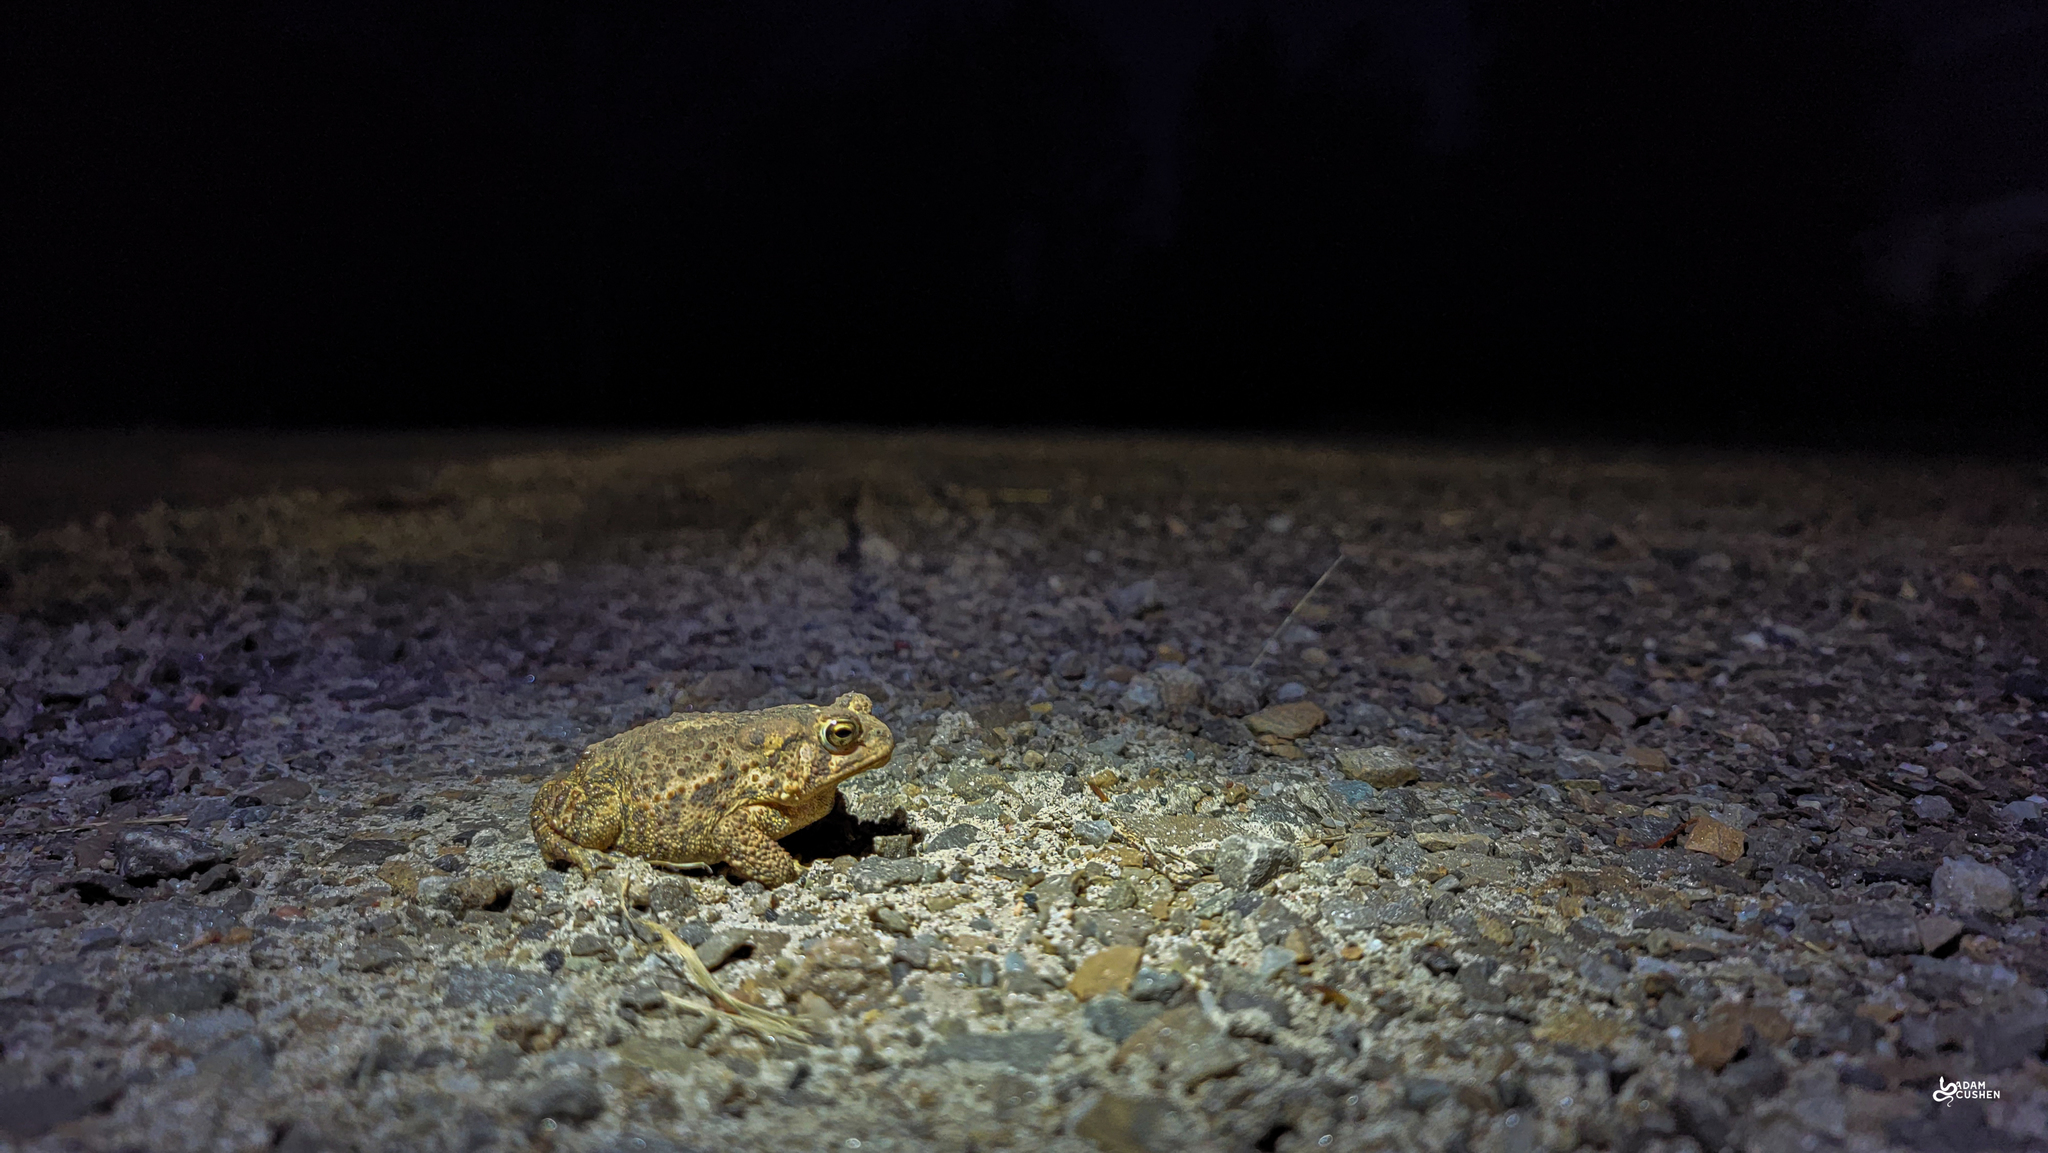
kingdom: Animalia
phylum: Chordata
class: Amphibia
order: Anura
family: Bufonidae
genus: Anaxyrus
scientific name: Anaxyrus americanus
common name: American toad
